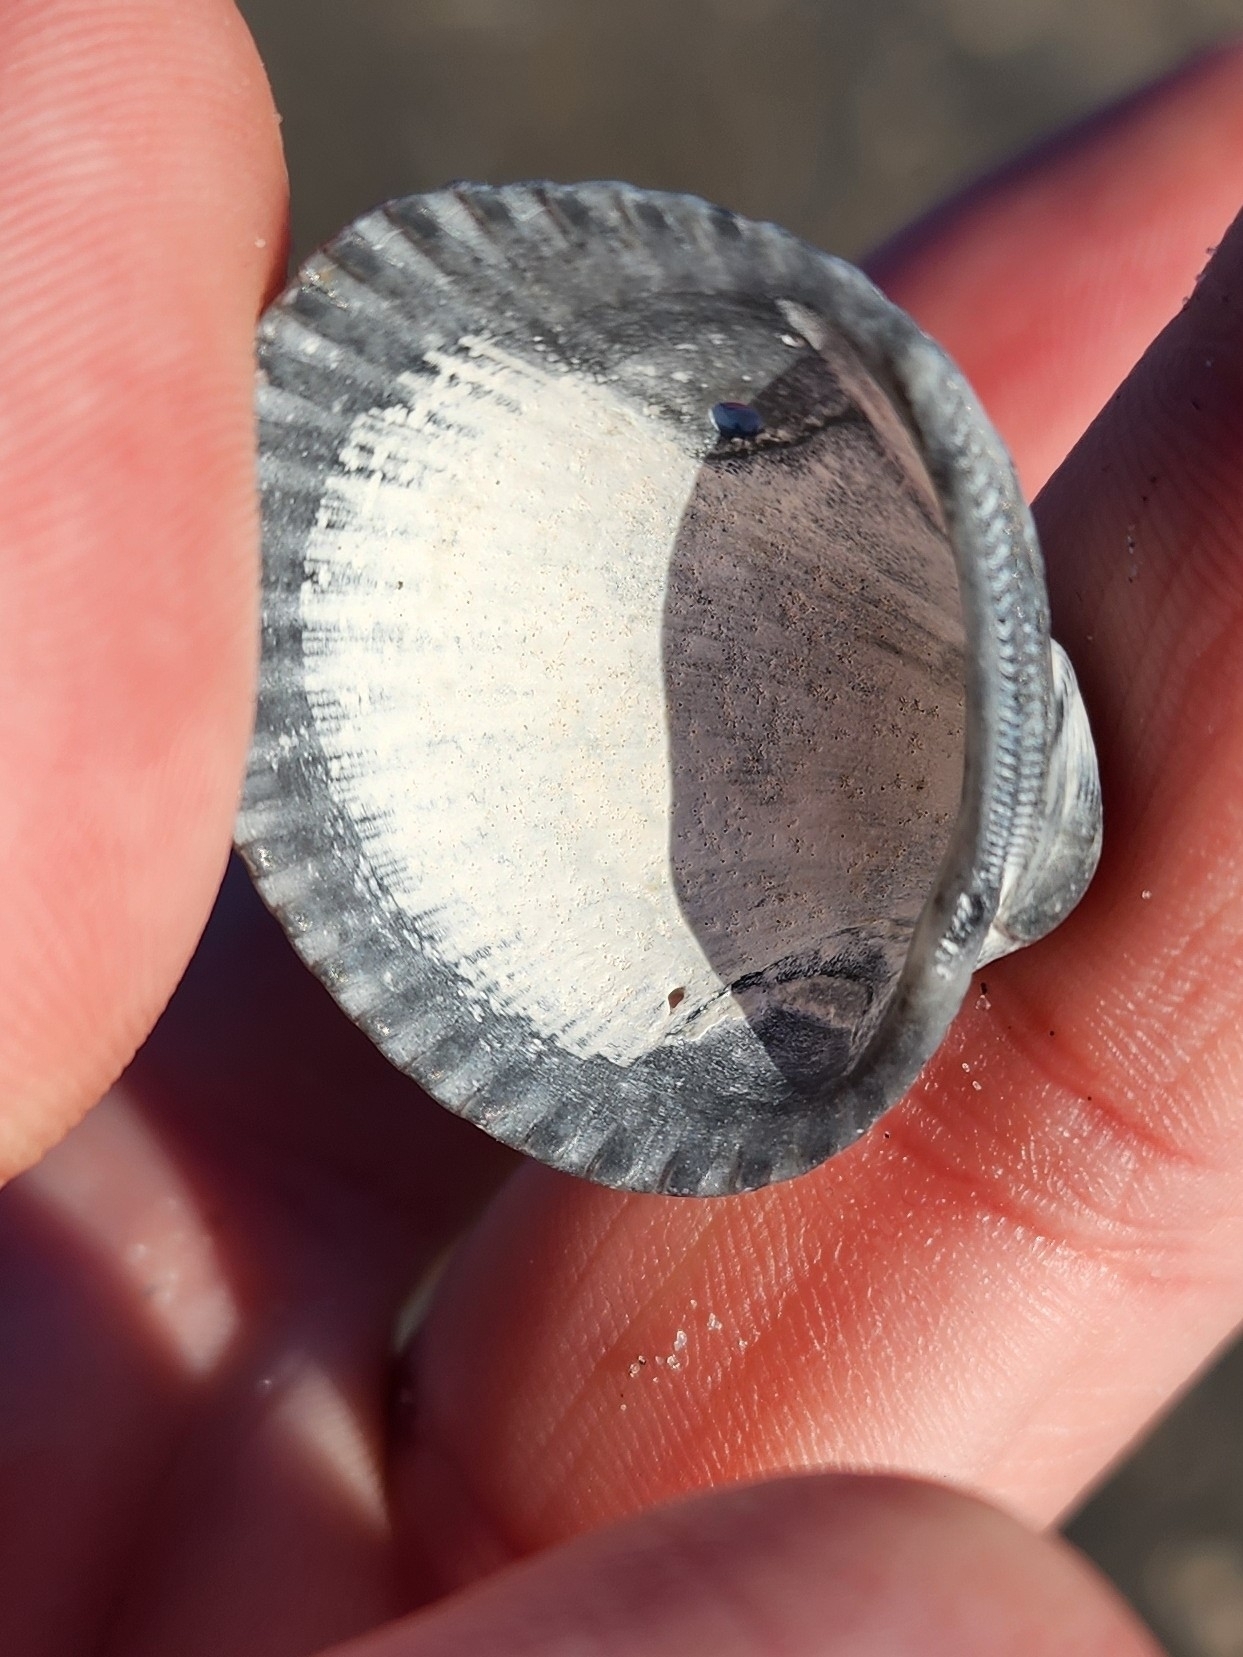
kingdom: Animalia
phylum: Mollusca
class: Bivalvia
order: Arcida
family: Arcidae
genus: Lunarca
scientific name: Lunarca ovalis
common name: Blood ark
